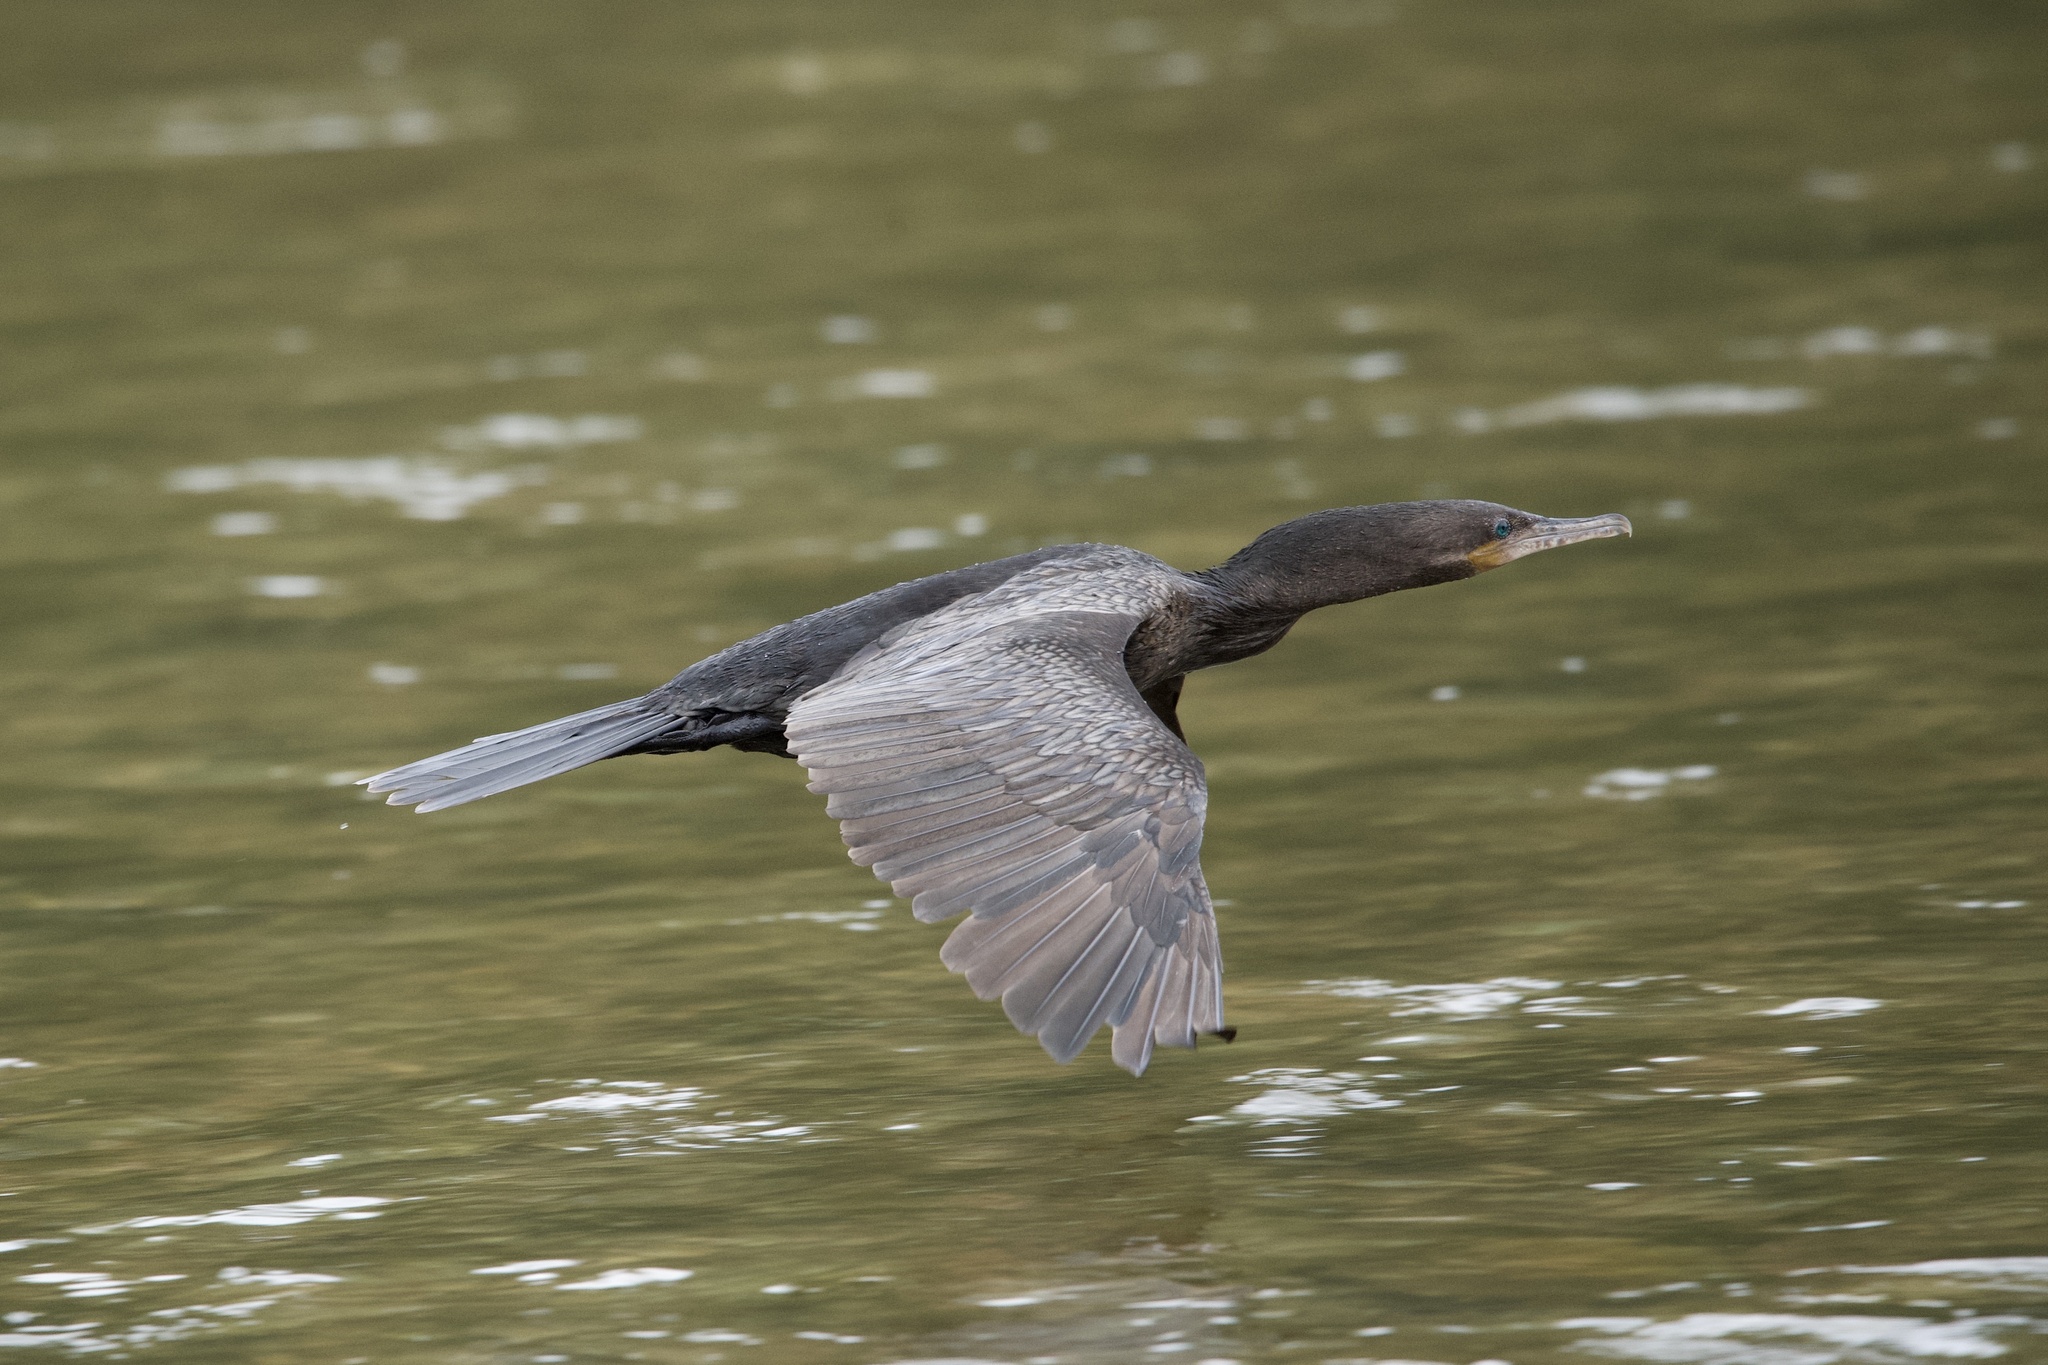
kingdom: Animalia
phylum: Chordata
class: Aves
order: Suliformes
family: Phalacrocoracidae
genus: Phalacrocorax
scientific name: Phalacrocorax brasilianus
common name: Neotropic cormorant
